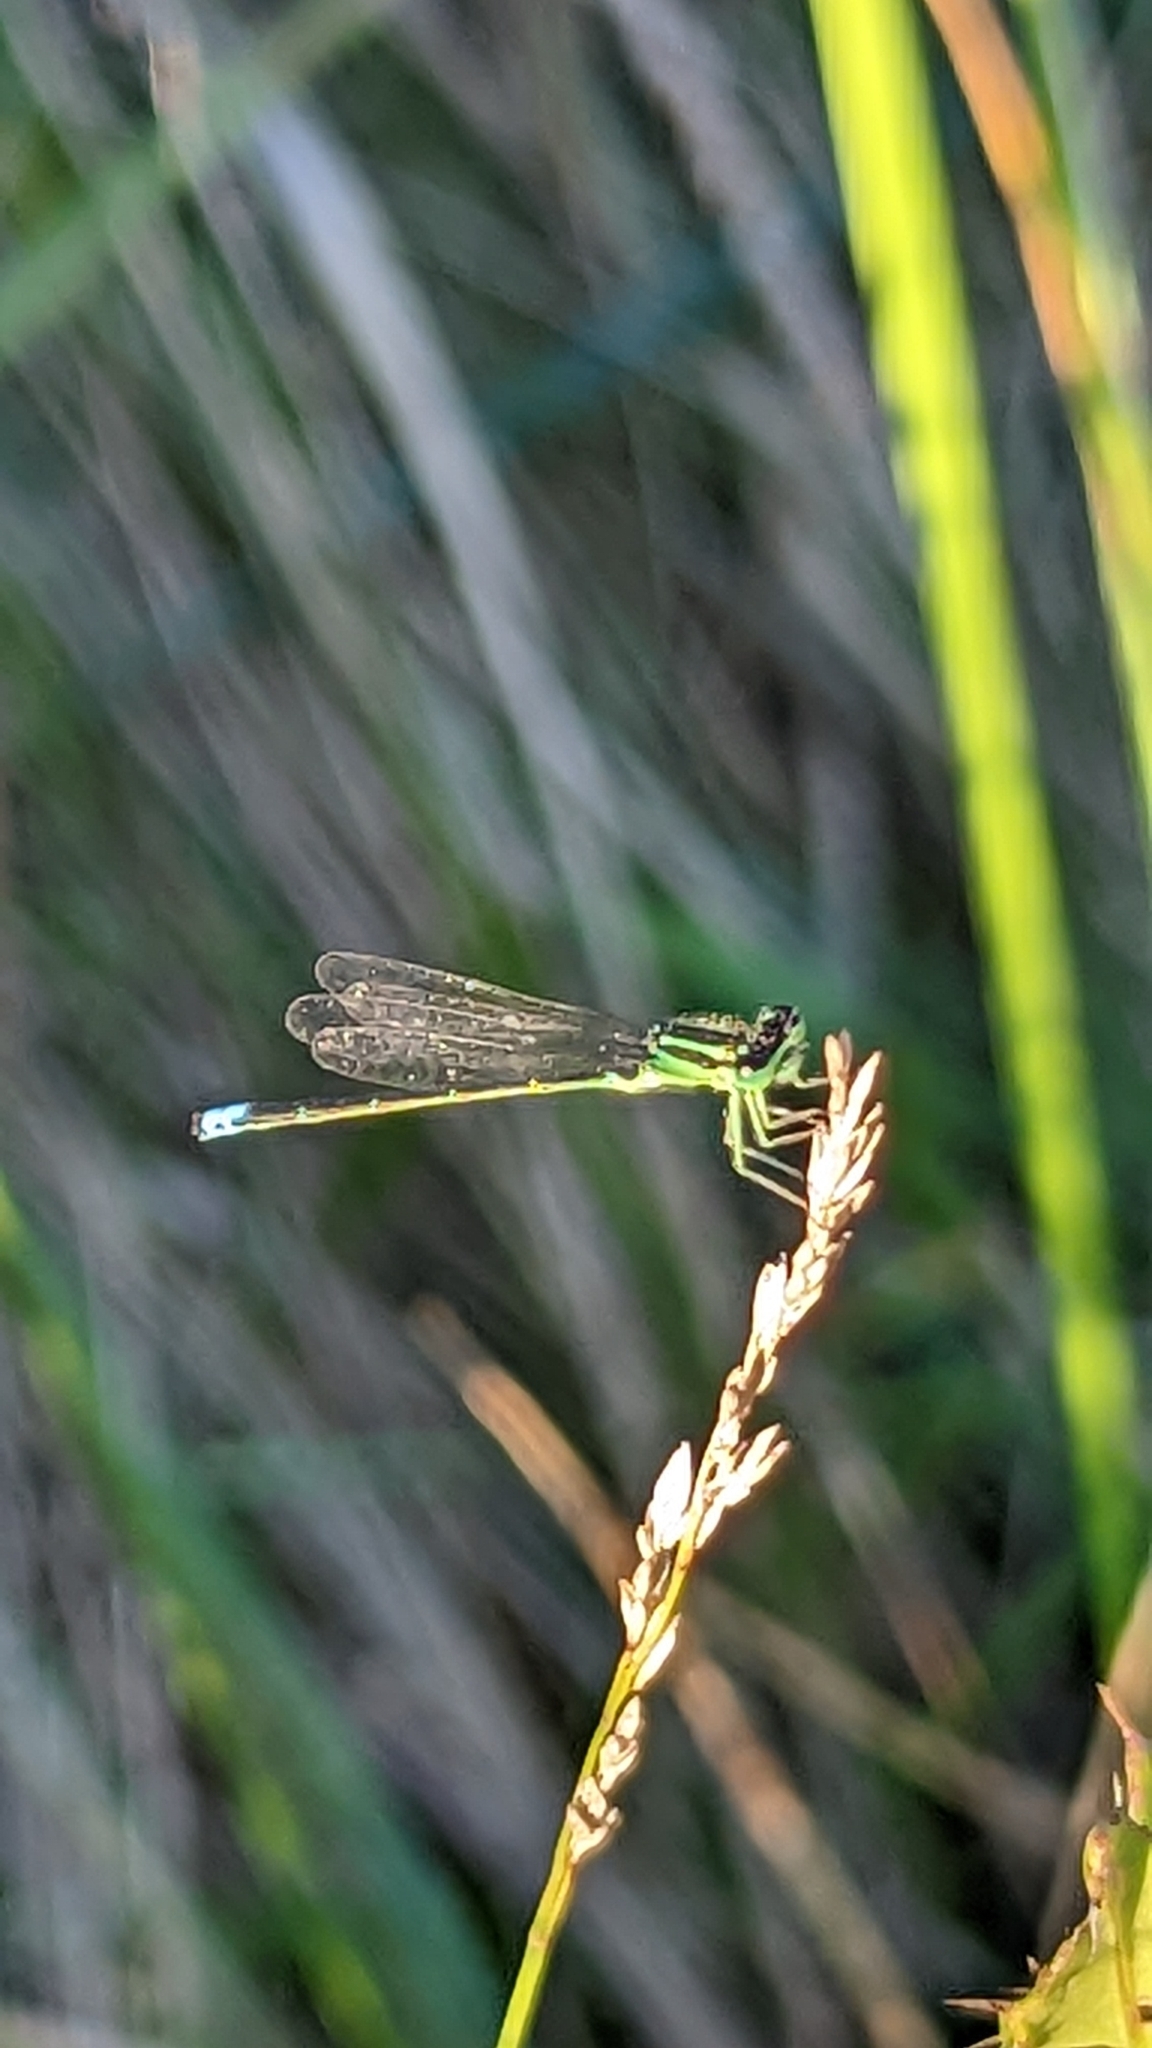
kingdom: Animalia
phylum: Arthropoda
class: Insecta
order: Odonata
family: Coenagrionidae
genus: Ischnura
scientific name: Ischnura verticalis
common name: Eastern forktail
